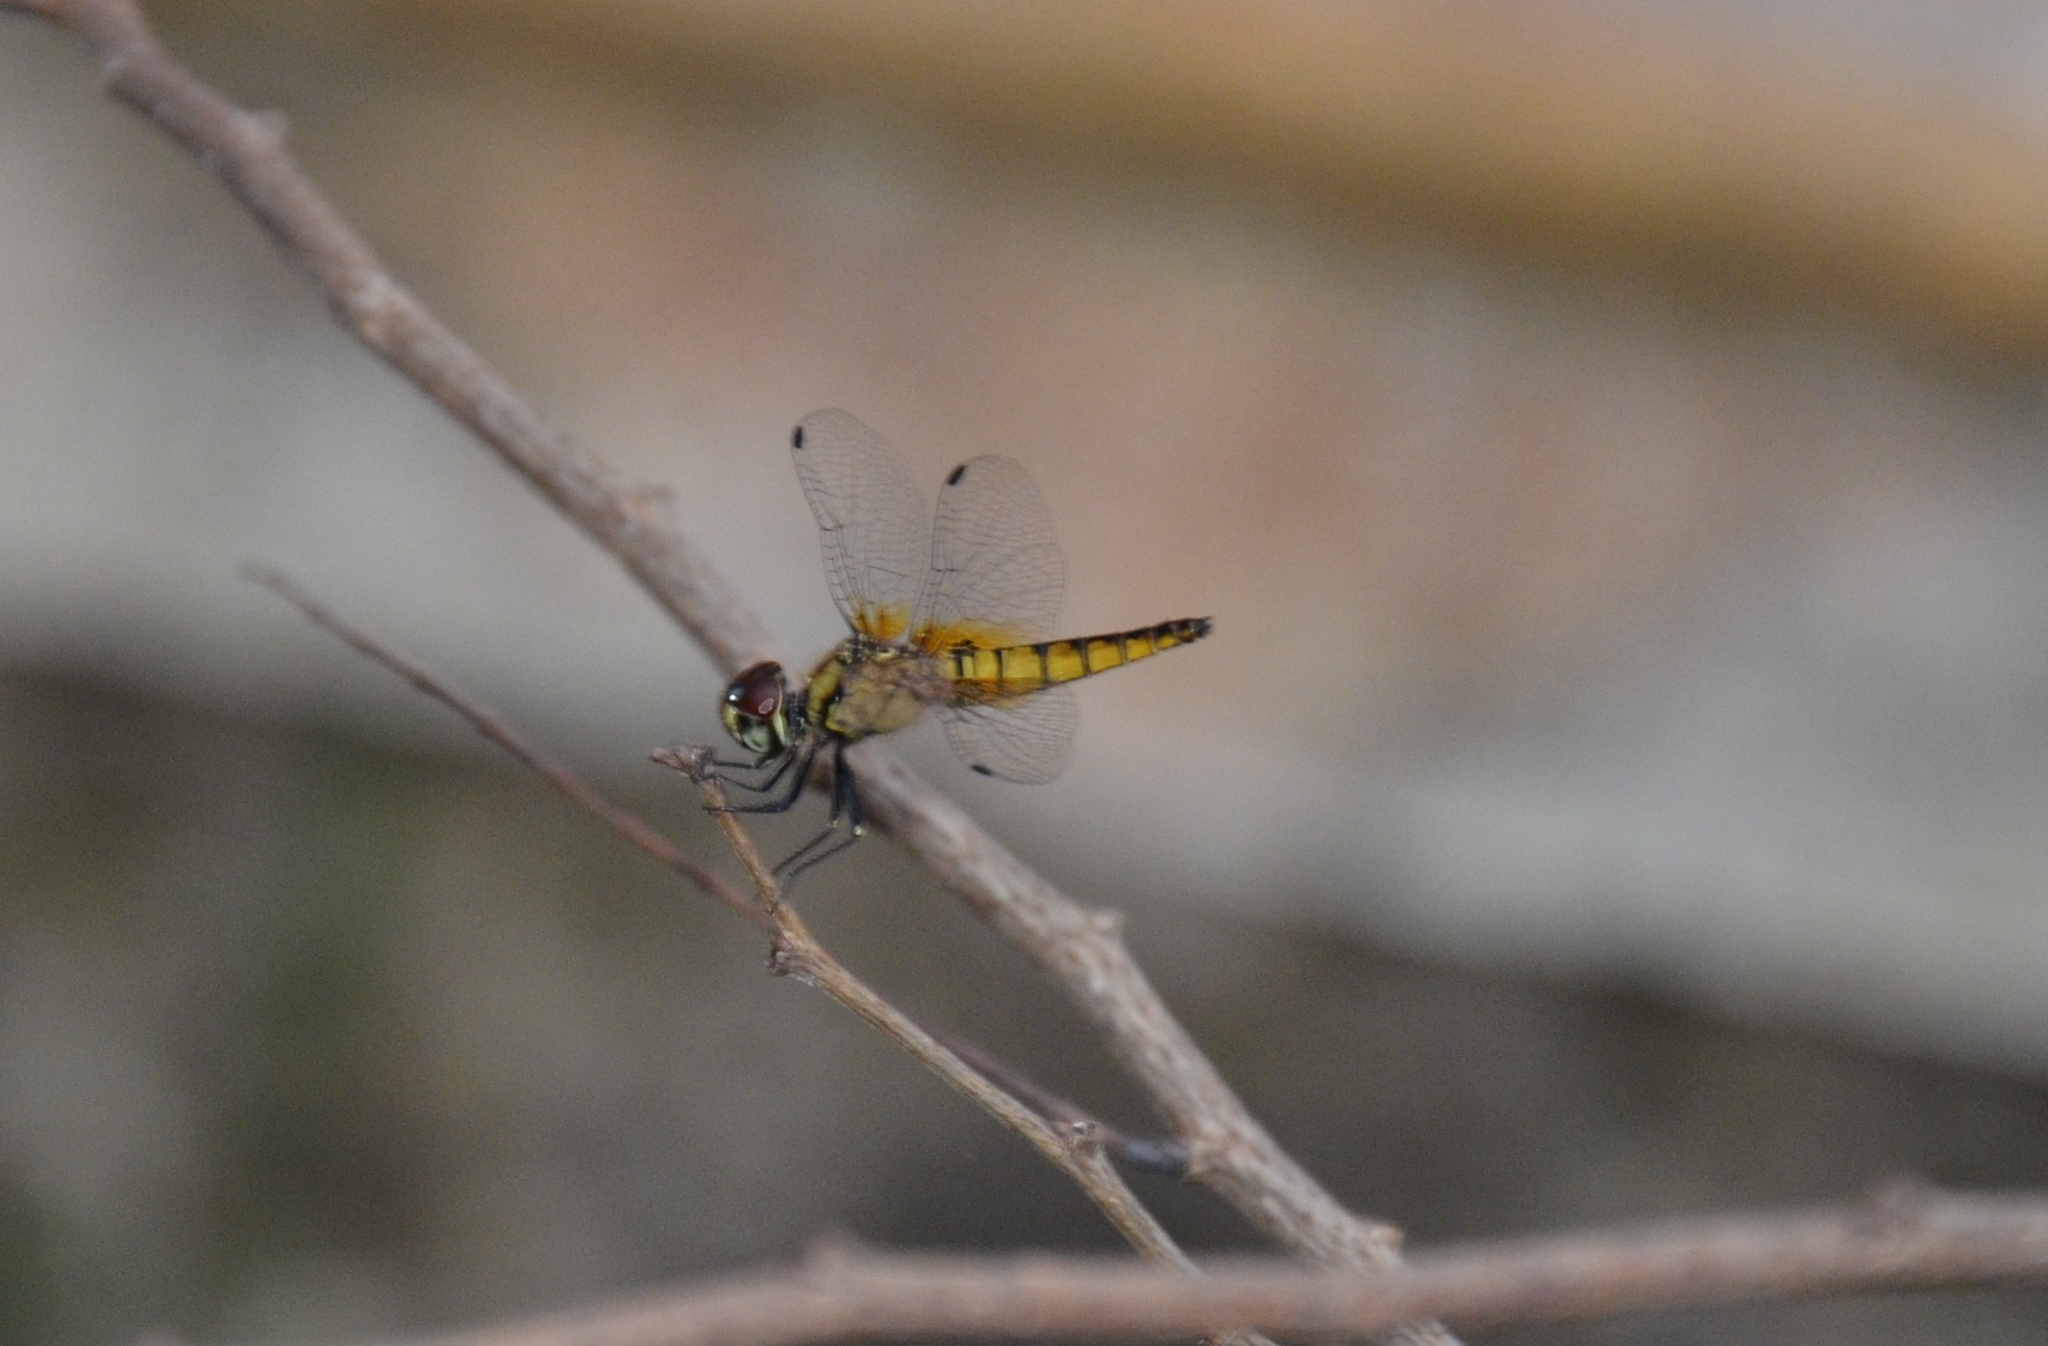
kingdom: Animalia
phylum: Arthropoda
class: Insecta
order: Odonata
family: Libellulidae
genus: Aethriamanta
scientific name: Aethriamanta brevipennis
